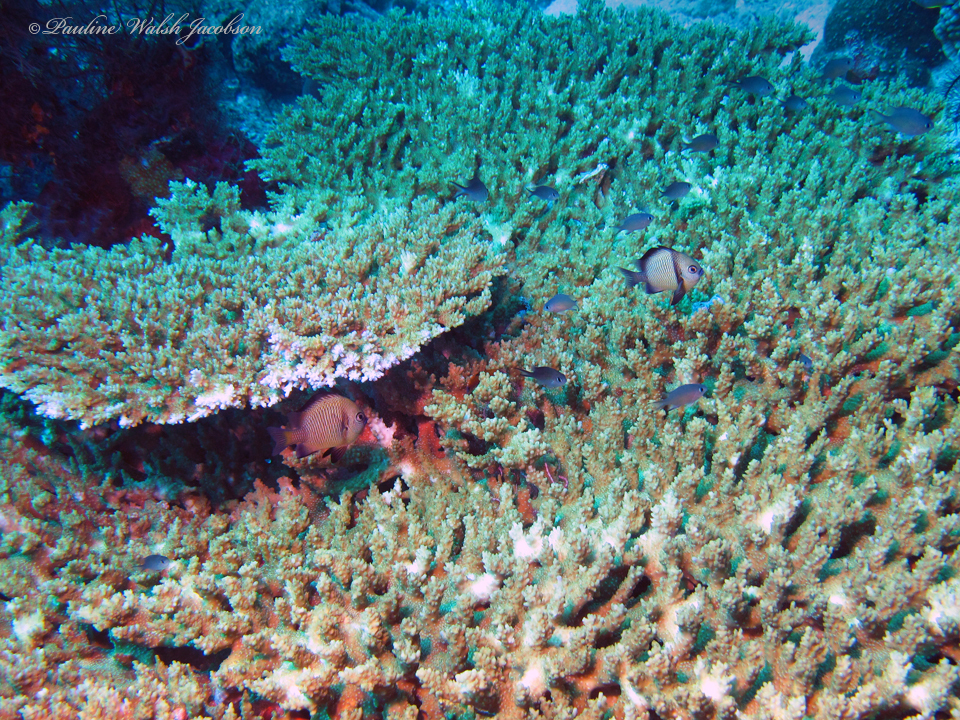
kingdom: Animalia
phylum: Chordata
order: Perciformes
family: Pomacentridae
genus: Dascyllus
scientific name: Dascyllus reticulatus
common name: Reticulated dascyllus
